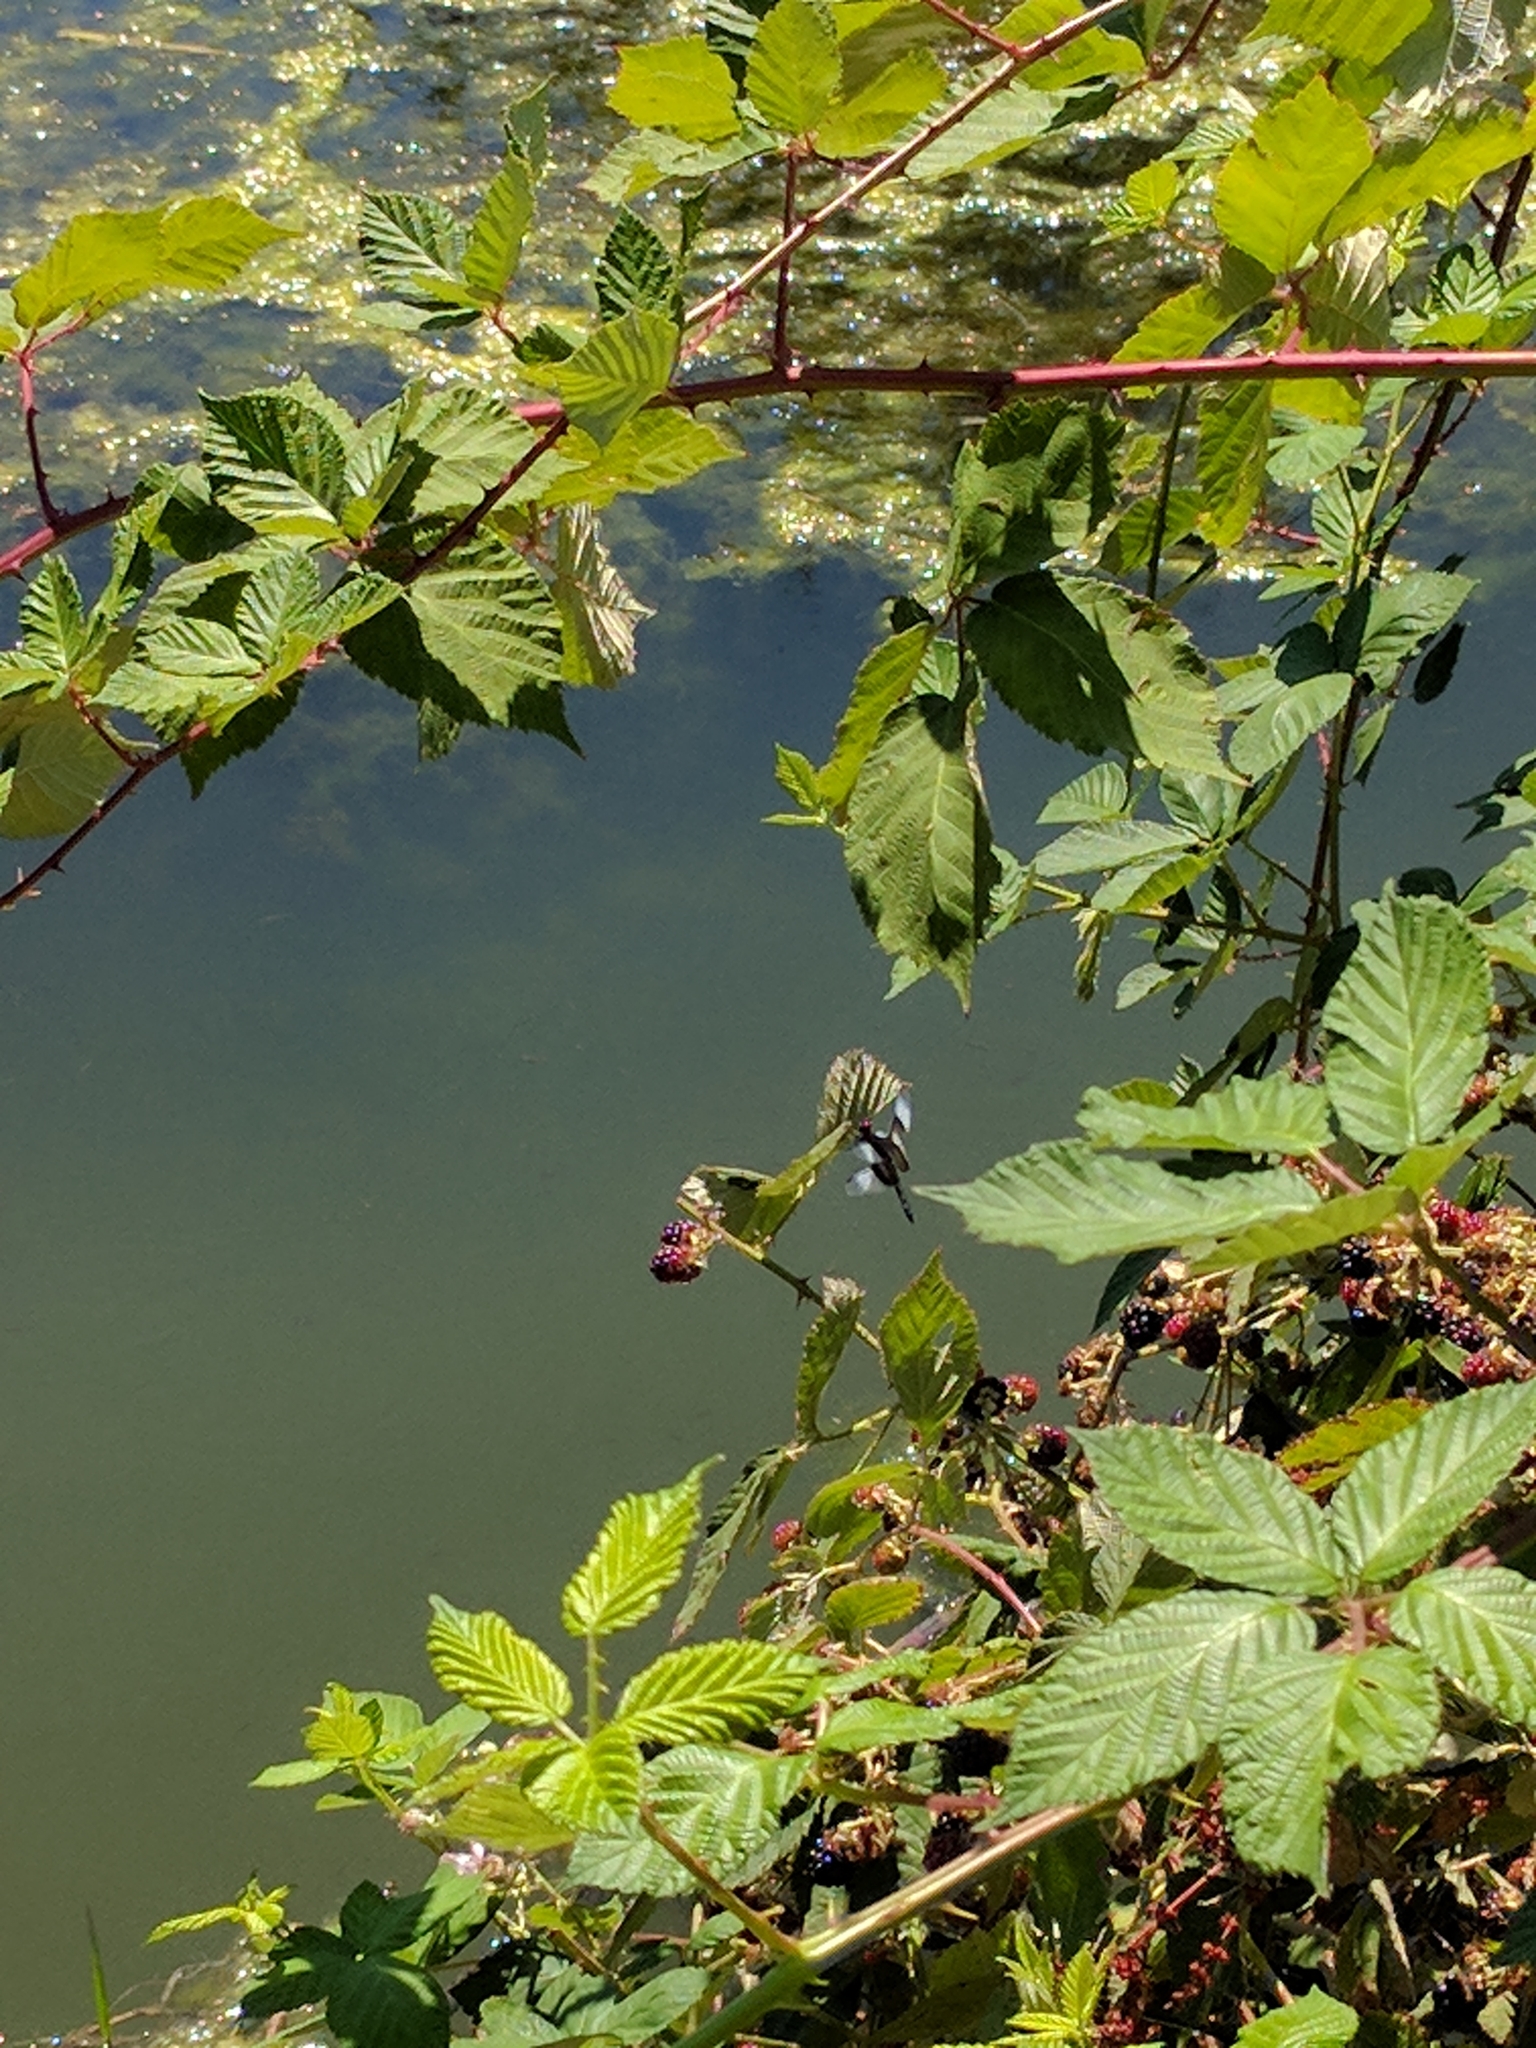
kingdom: Animalia
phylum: Arthropoda
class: Insecta
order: Odonata
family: Libellulidae
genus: Libellula
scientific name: Libellula luctuosa
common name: Widow skimmer
